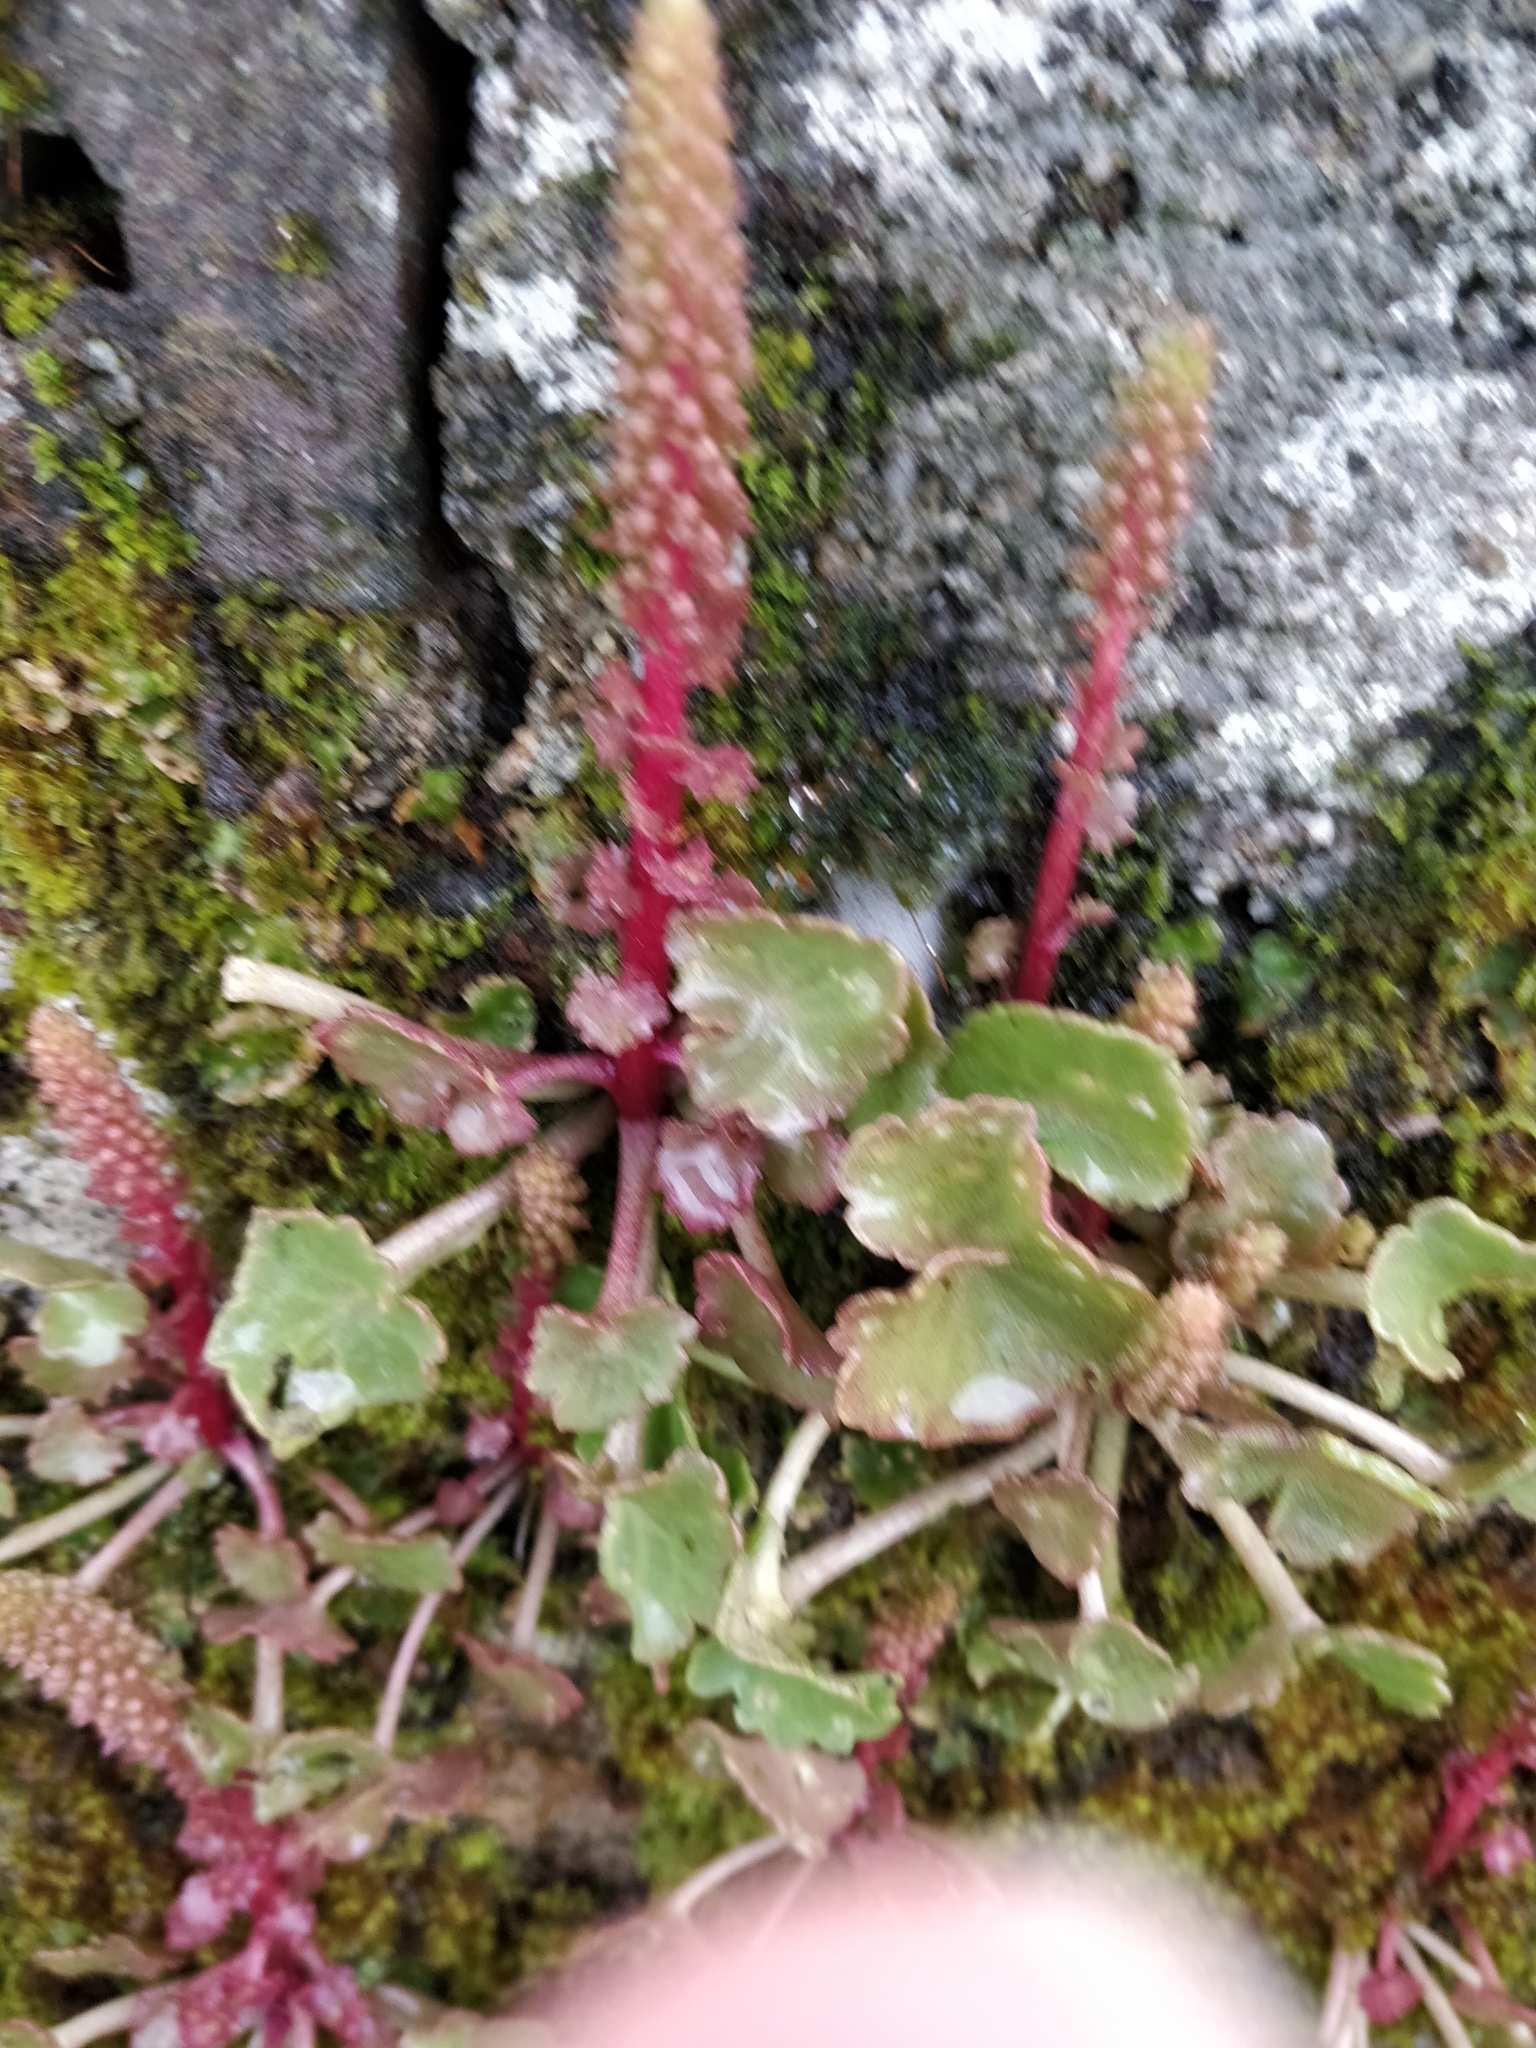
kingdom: Plantae
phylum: Tracheophyta
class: Magnoliopsida
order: Saxifragales
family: Crassulaceae
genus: Umbilicus
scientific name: Umbilicus rupestris
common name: Navelwort
